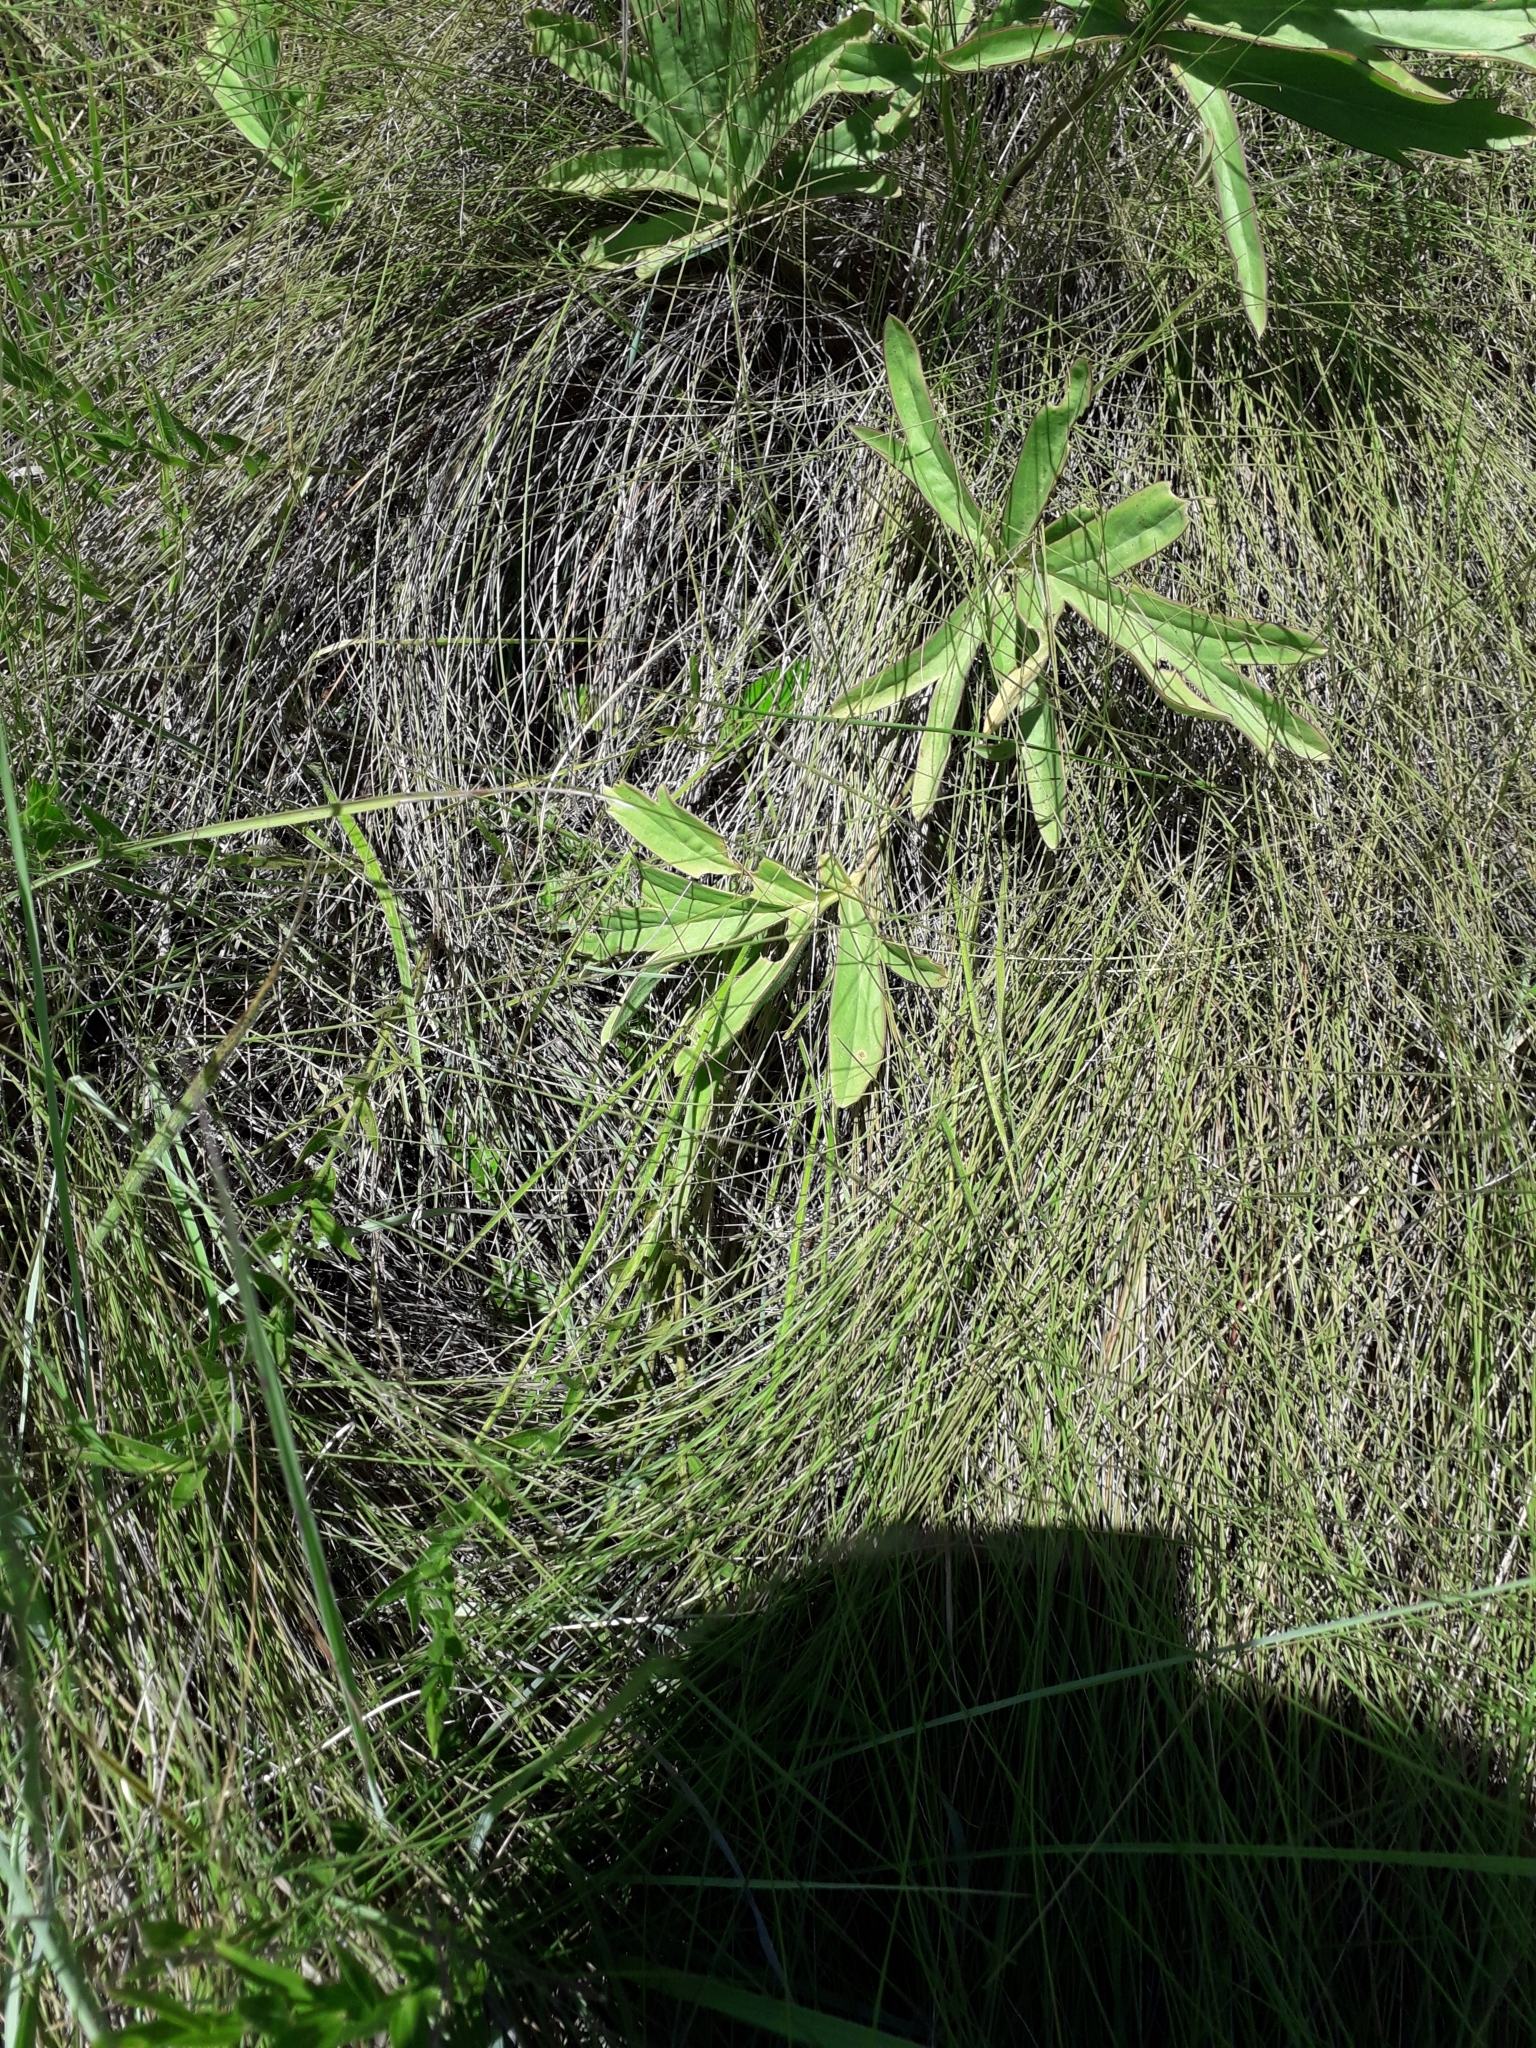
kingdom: Plantae
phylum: Tracheophyta
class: Magnoliopsida
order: Geraniales
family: Geraniaceae
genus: Pelargonium
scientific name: Pelargonium luridum
